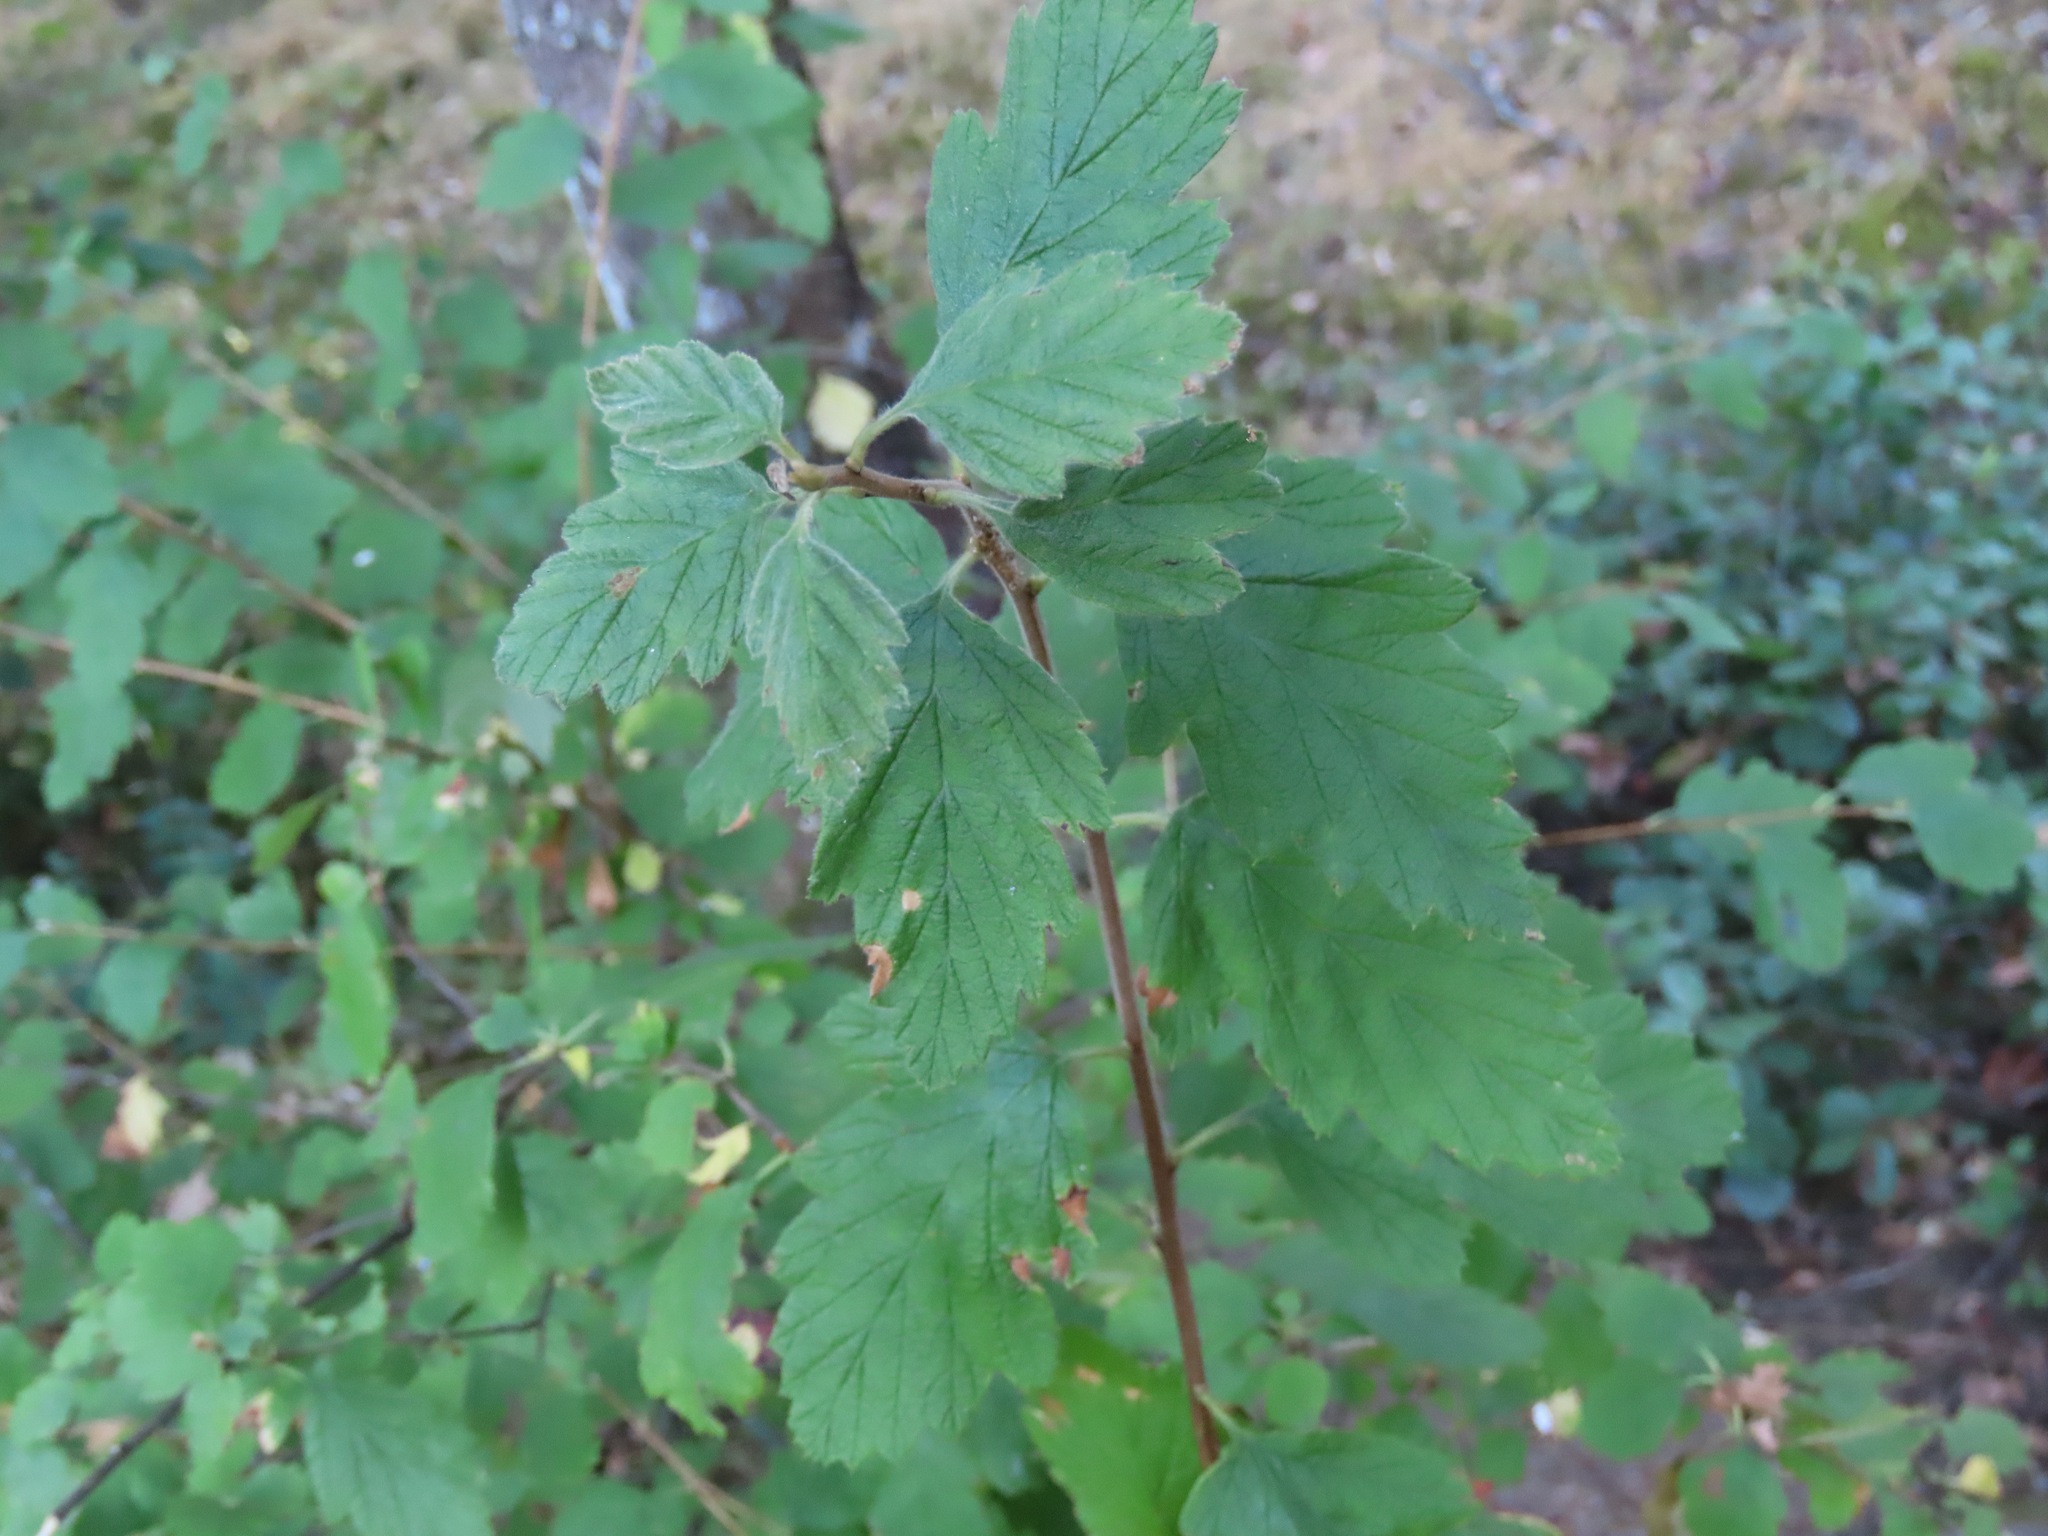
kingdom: Plantae
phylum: Tracheophyta
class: Magnoliopsida
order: Rosales
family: Rosaceae
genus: Holodiscus
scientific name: Holodiscus discolor
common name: Oceanspray
